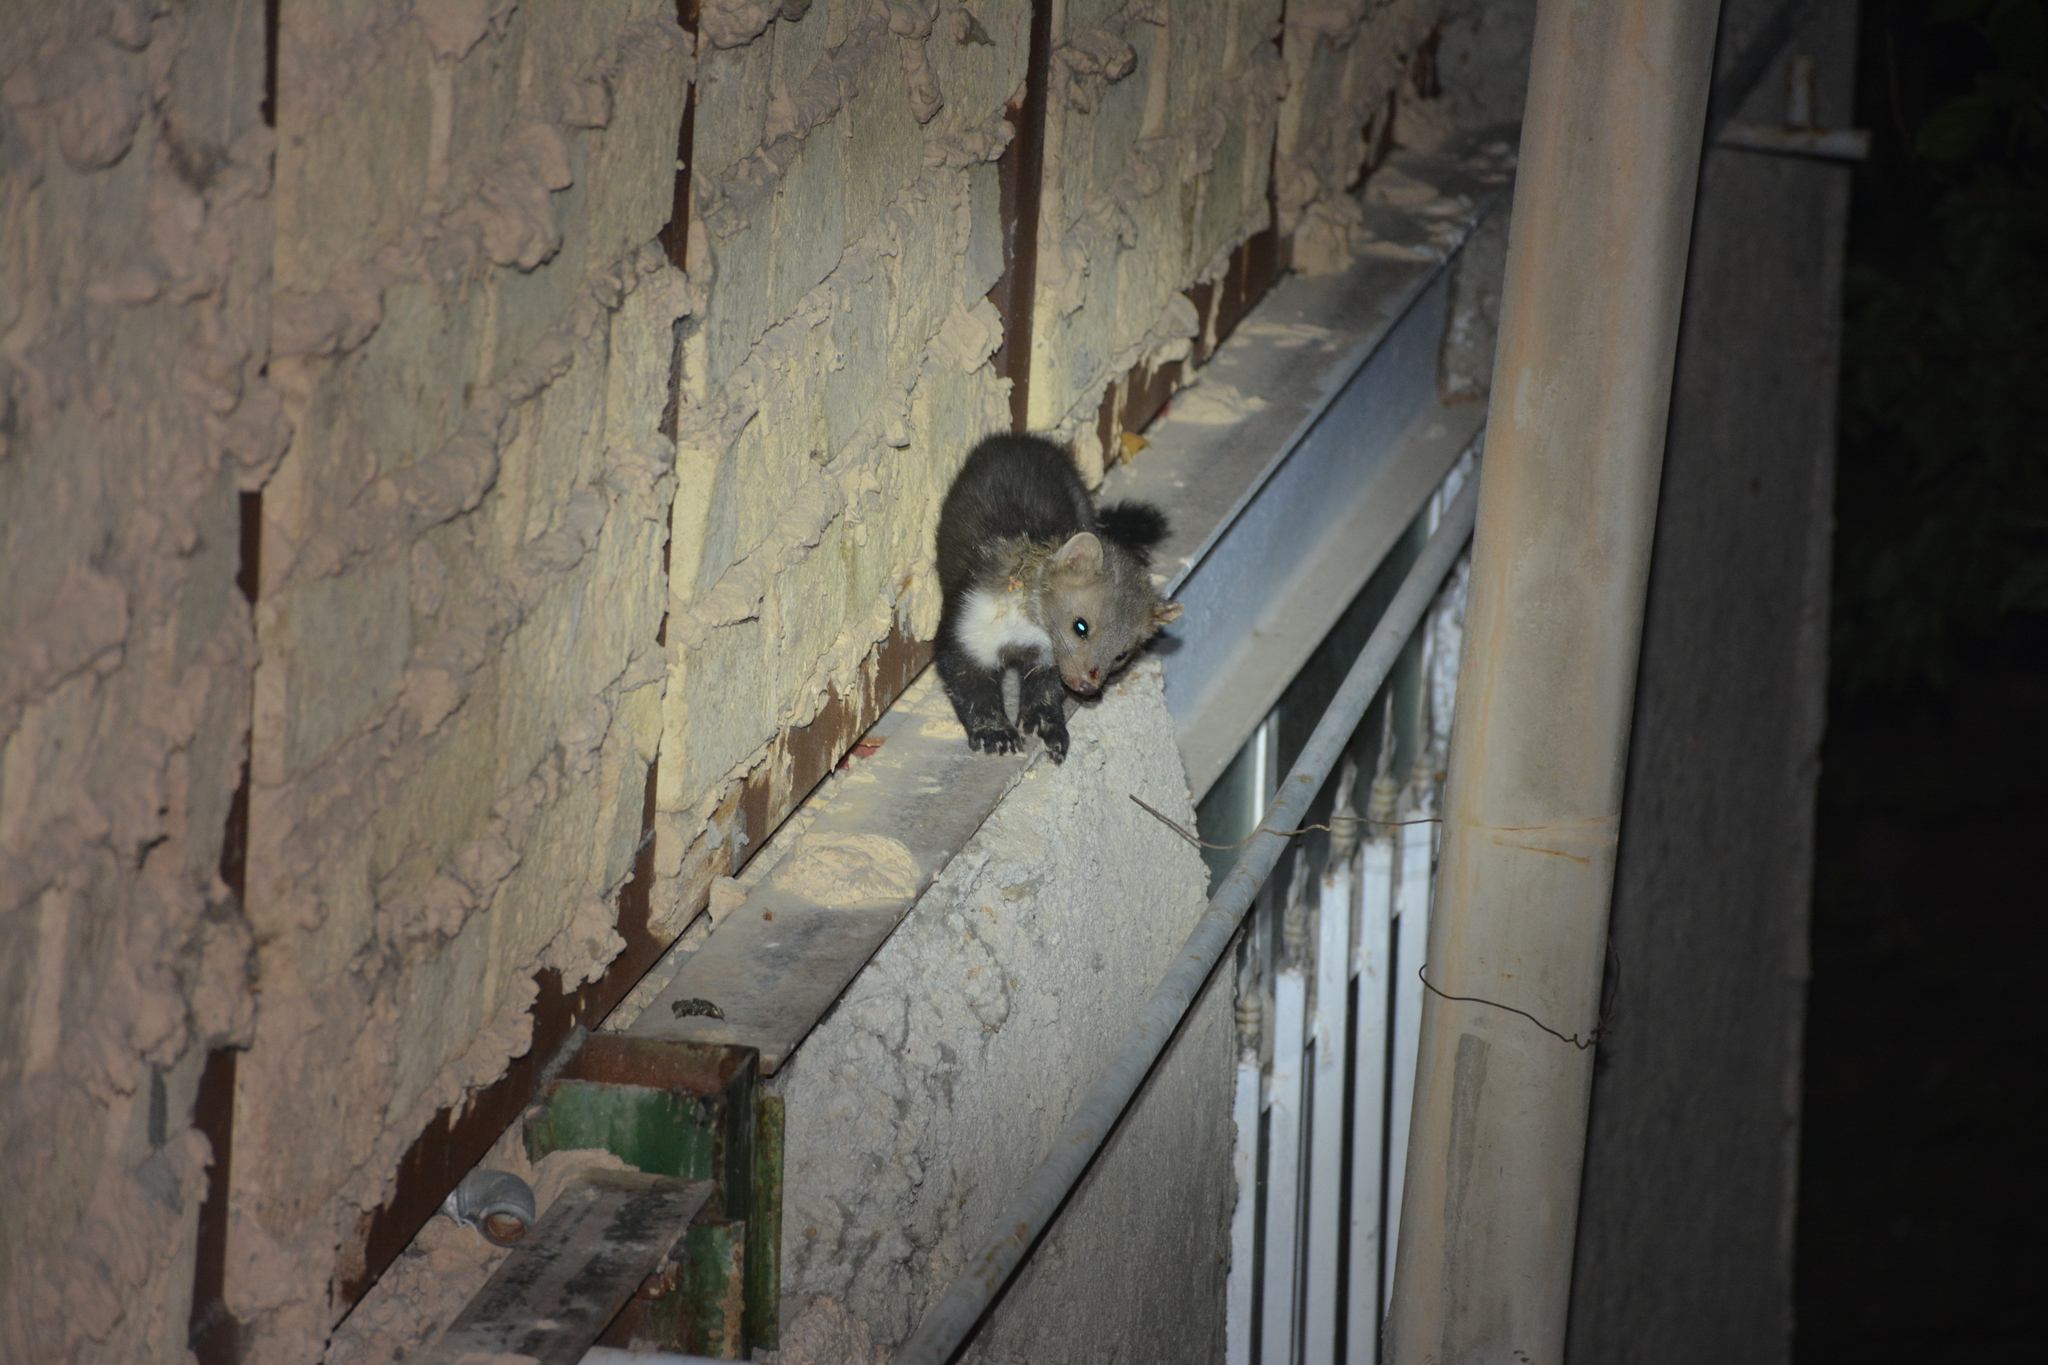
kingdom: Animalia
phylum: Chordata
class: Mammalia
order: Carnivora
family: Mustelidae
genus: Martes
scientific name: Martes foina
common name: Beech marten
